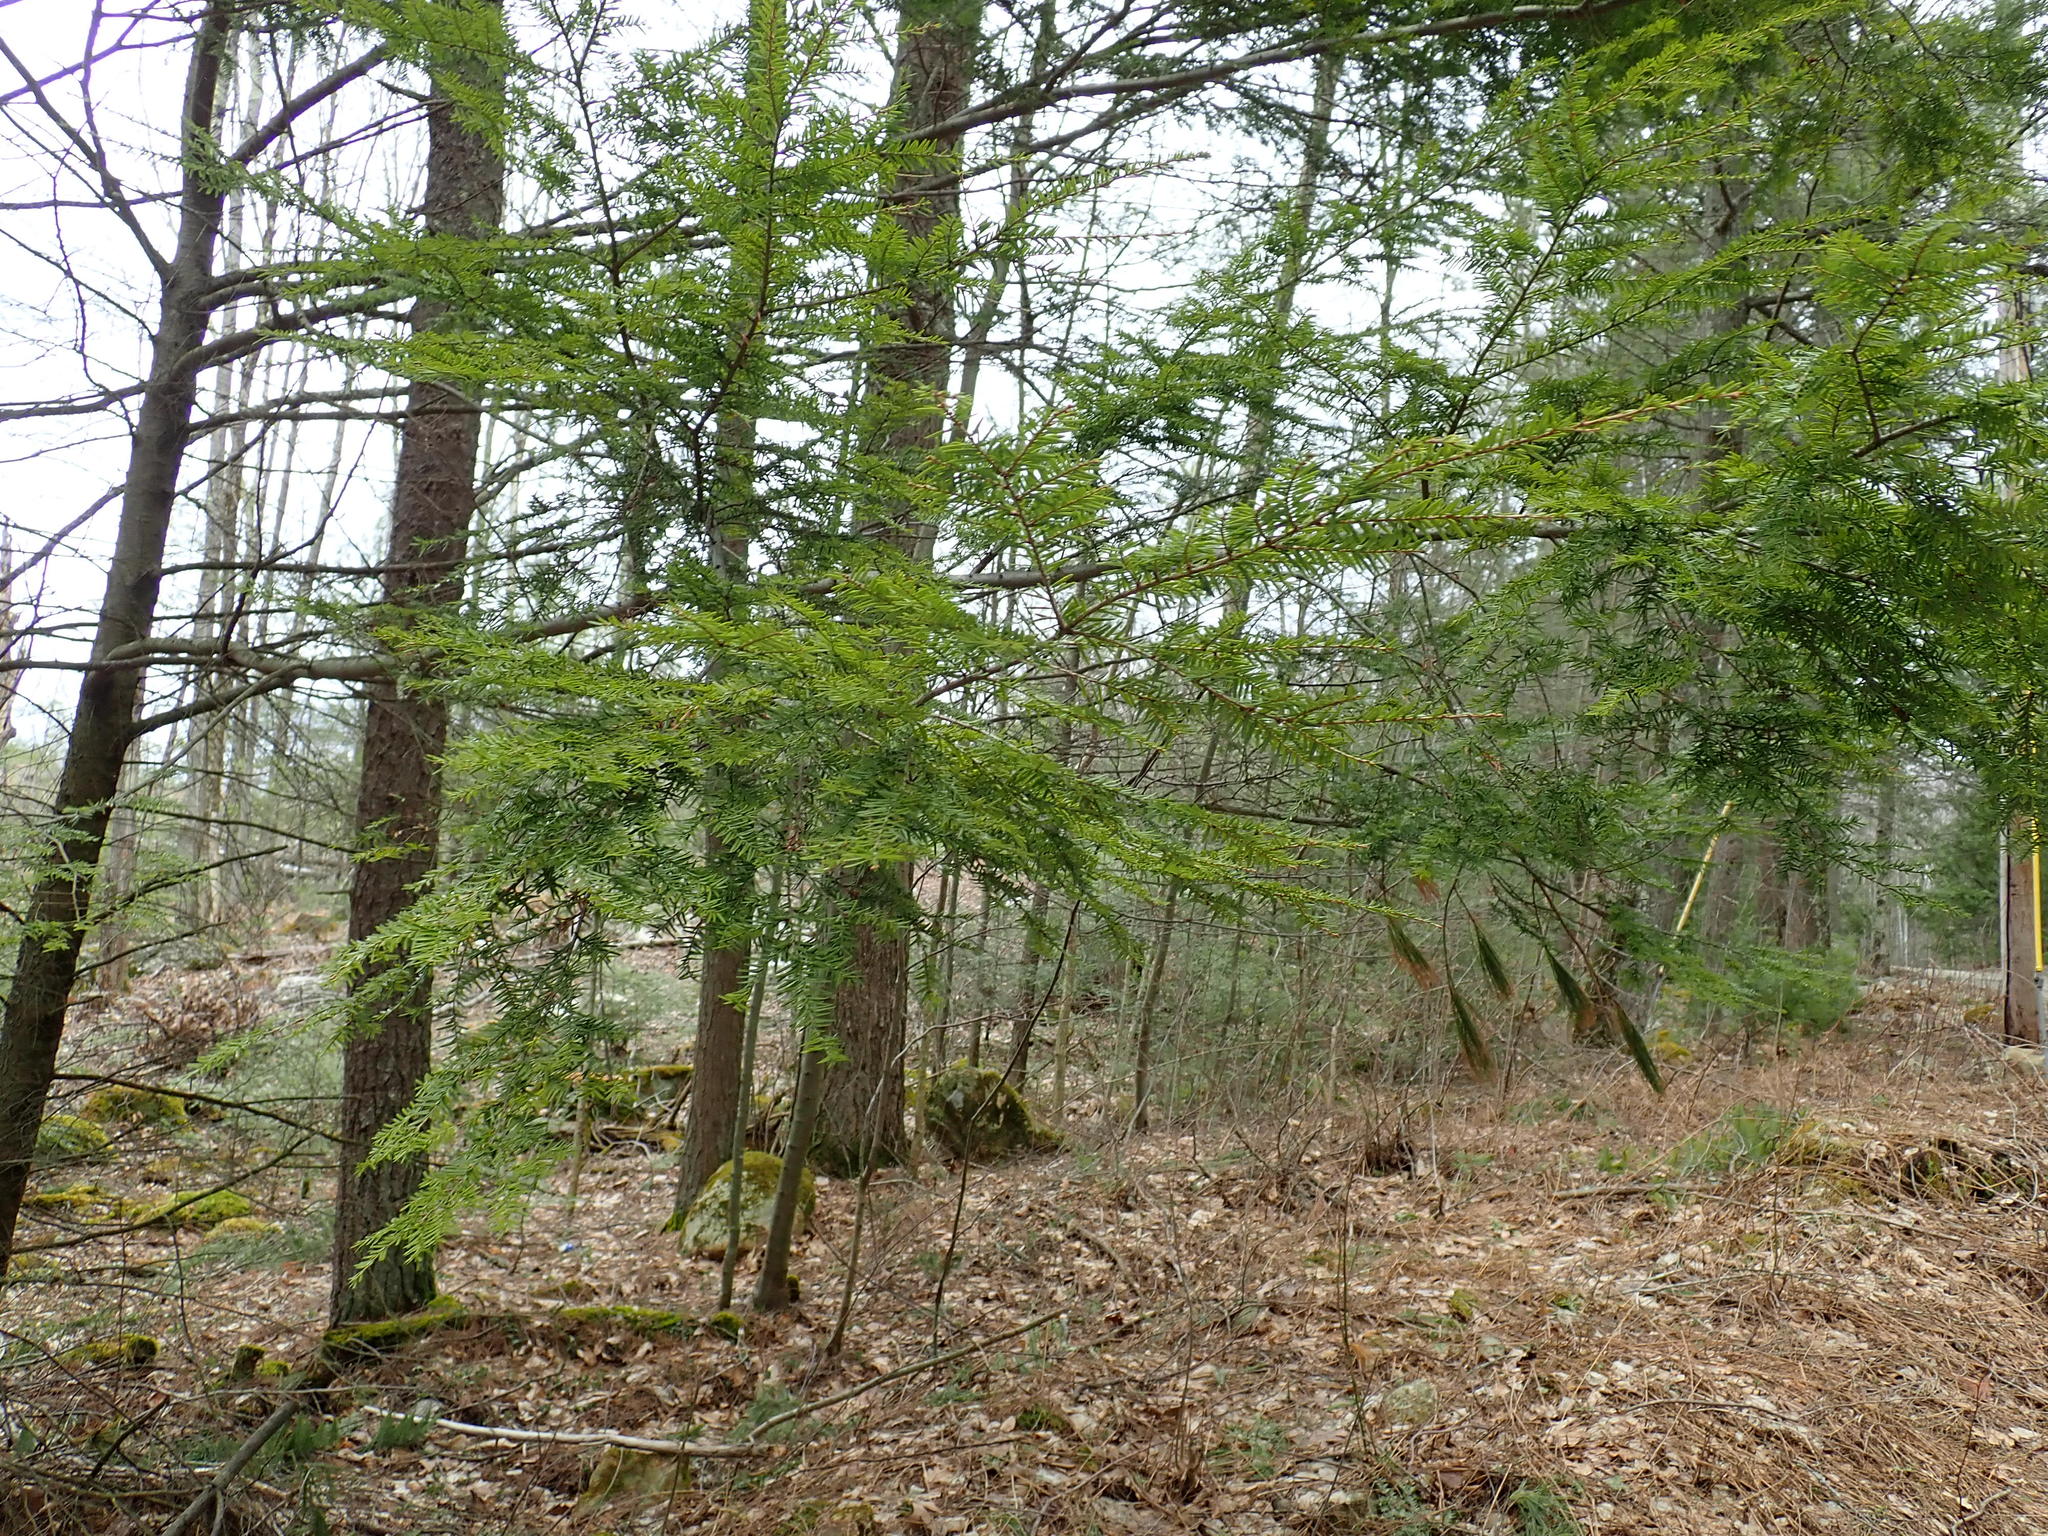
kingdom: Plantae
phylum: Tracheophyta
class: Pinopsida
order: Pinales
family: Pinaceae
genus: Tsuga
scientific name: Tsuga canadensis
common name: Eastern hemlock
